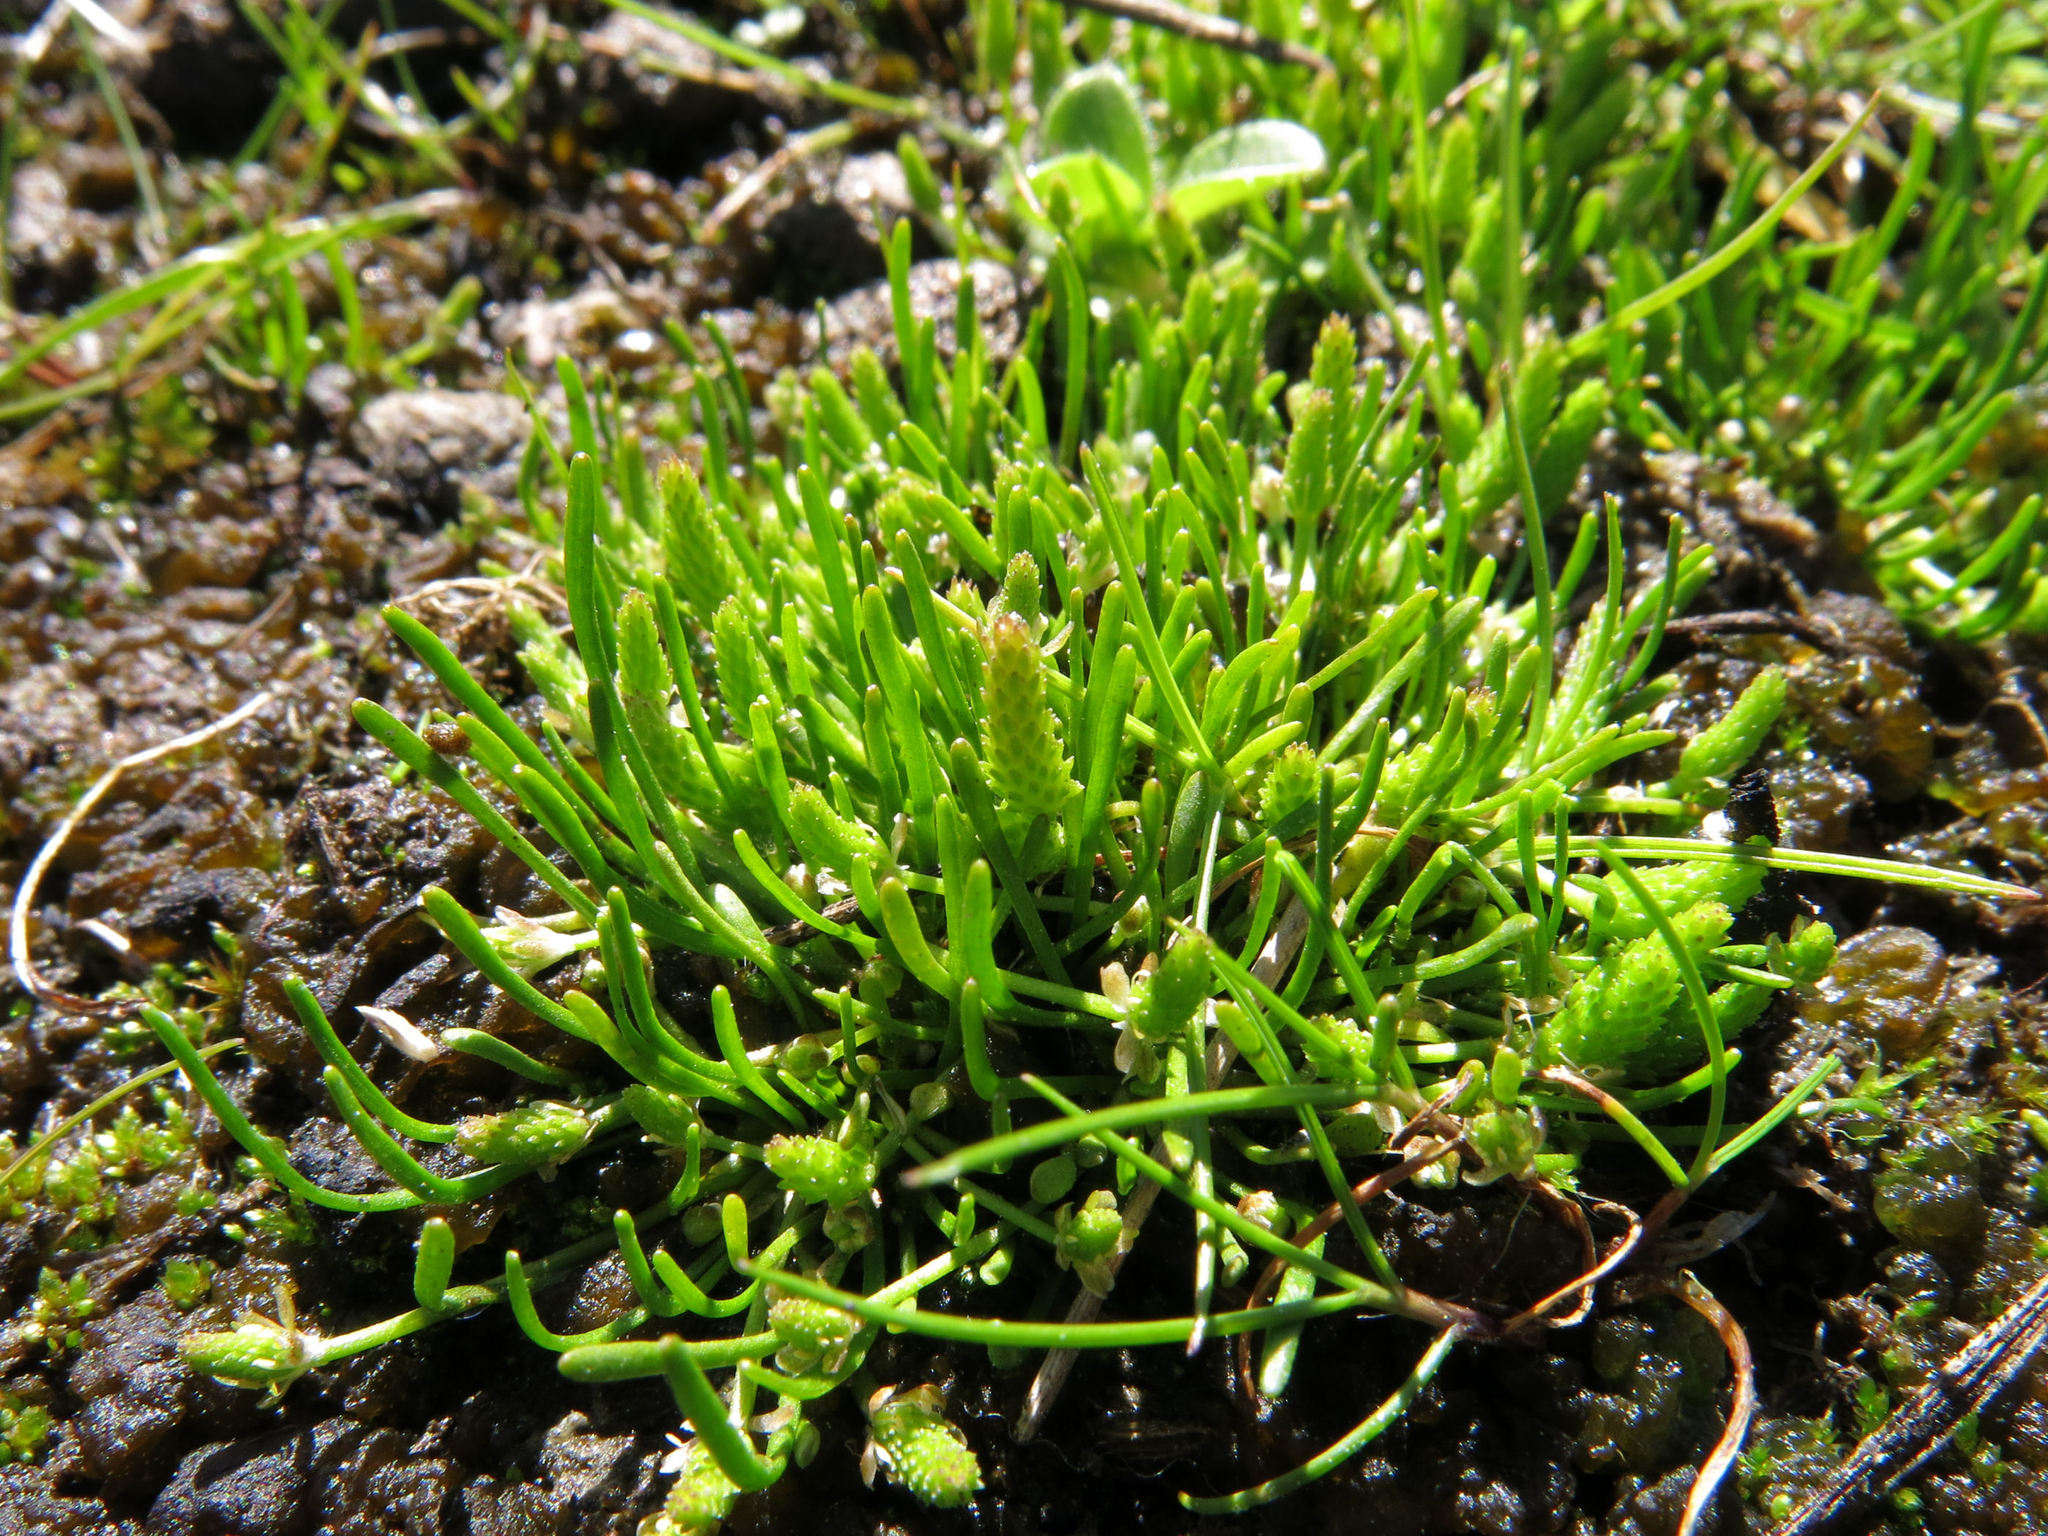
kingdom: Plantae
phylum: Tracheophyta
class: Magnoliopsida
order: Ranunculales
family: Ranunculaceae
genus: Myosurus
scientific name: Myosurus minimus
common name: Mousetail
